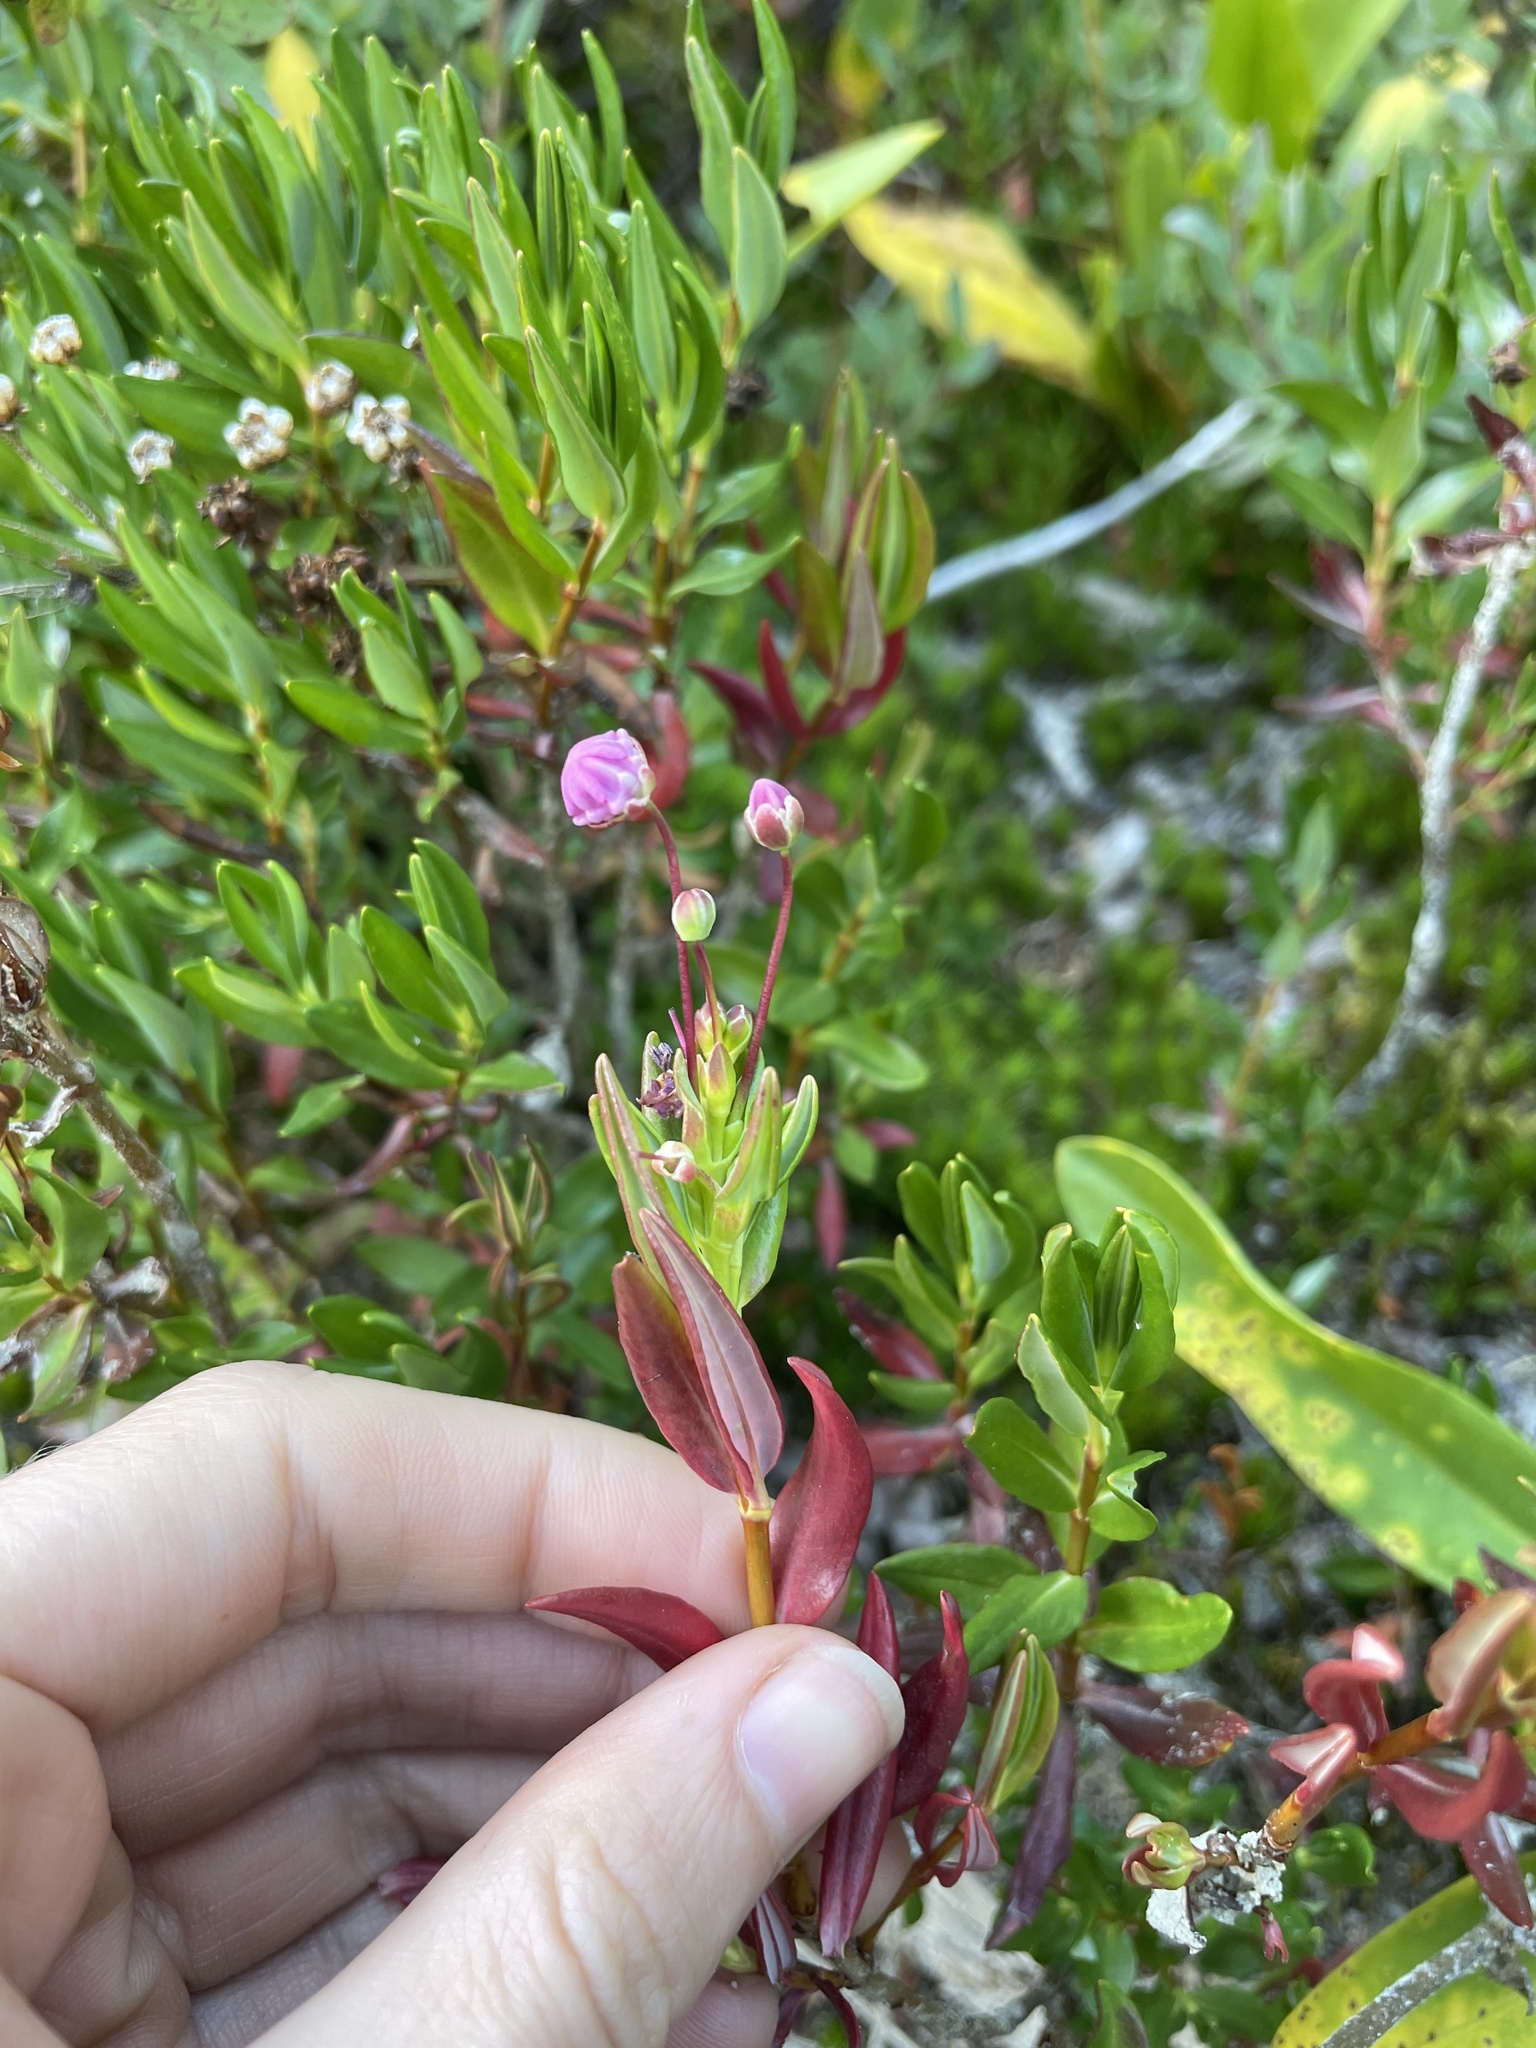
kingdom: Plantae
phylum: Tracheophyta
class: Magnoliopsida
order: Ericales
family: Ericaceae
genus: Kalmia
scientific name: Kalmia microphylla
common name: Alpine bog laurel
